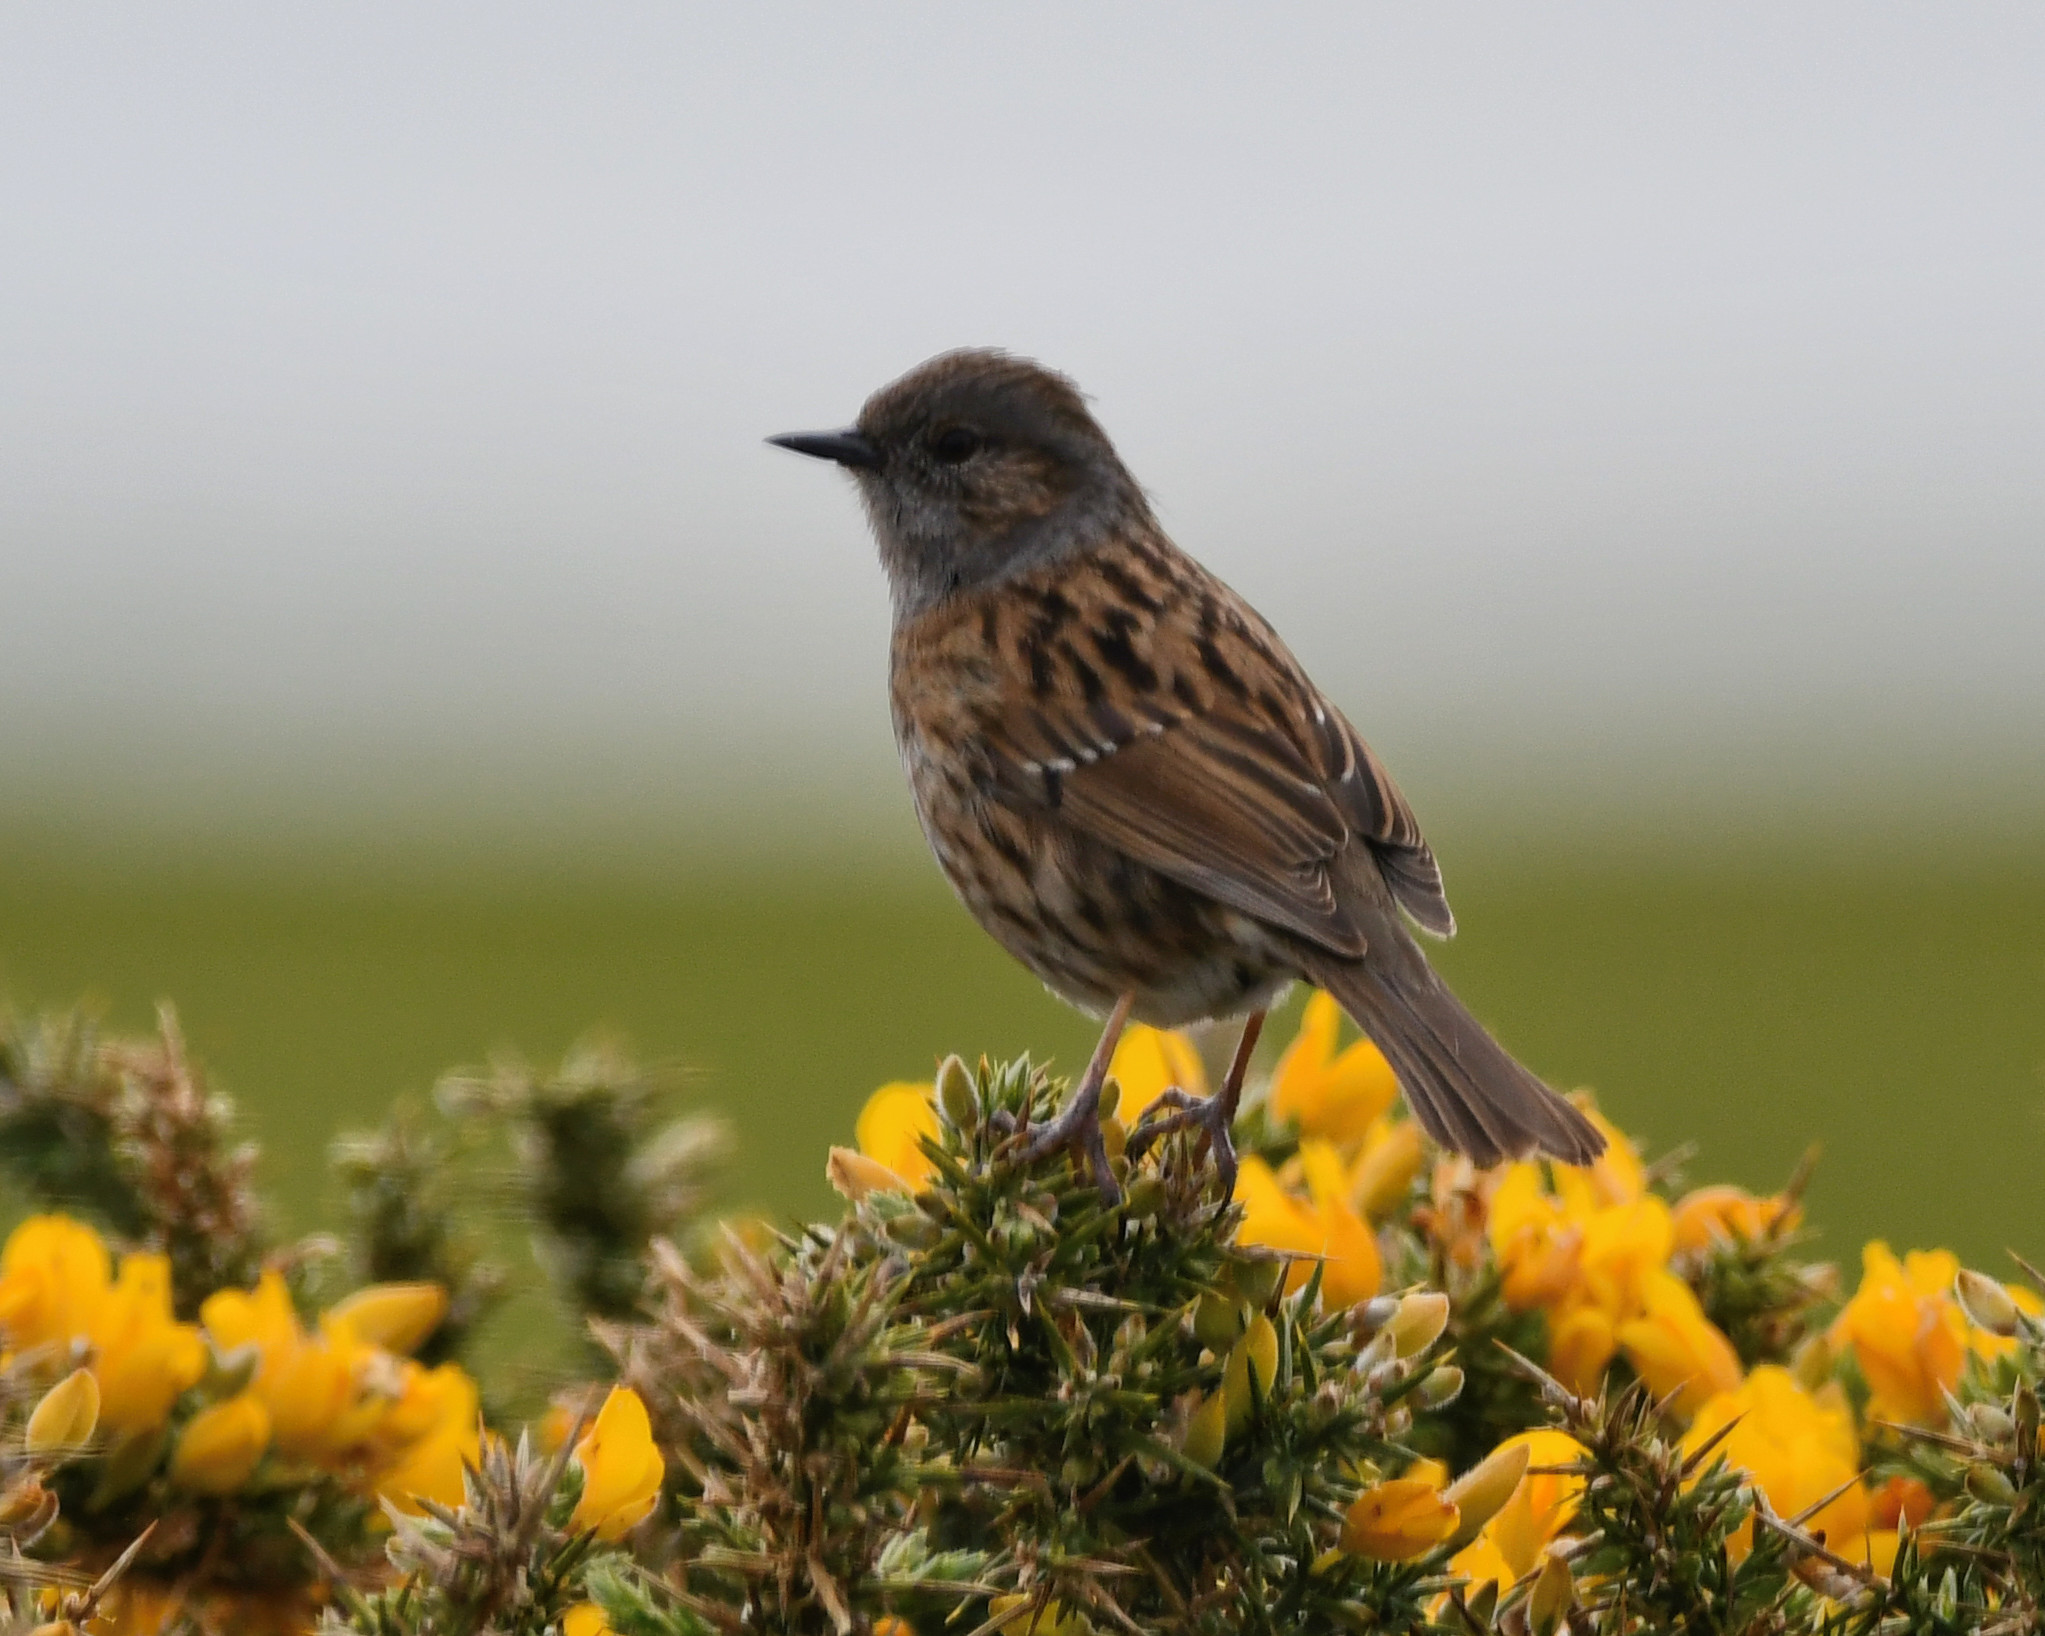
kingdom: Animalia
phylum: Chordata
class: Aves
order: Passeriformes
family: Prunellidae
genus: Prunella
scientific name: Prunella modularis
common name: Dunnock
